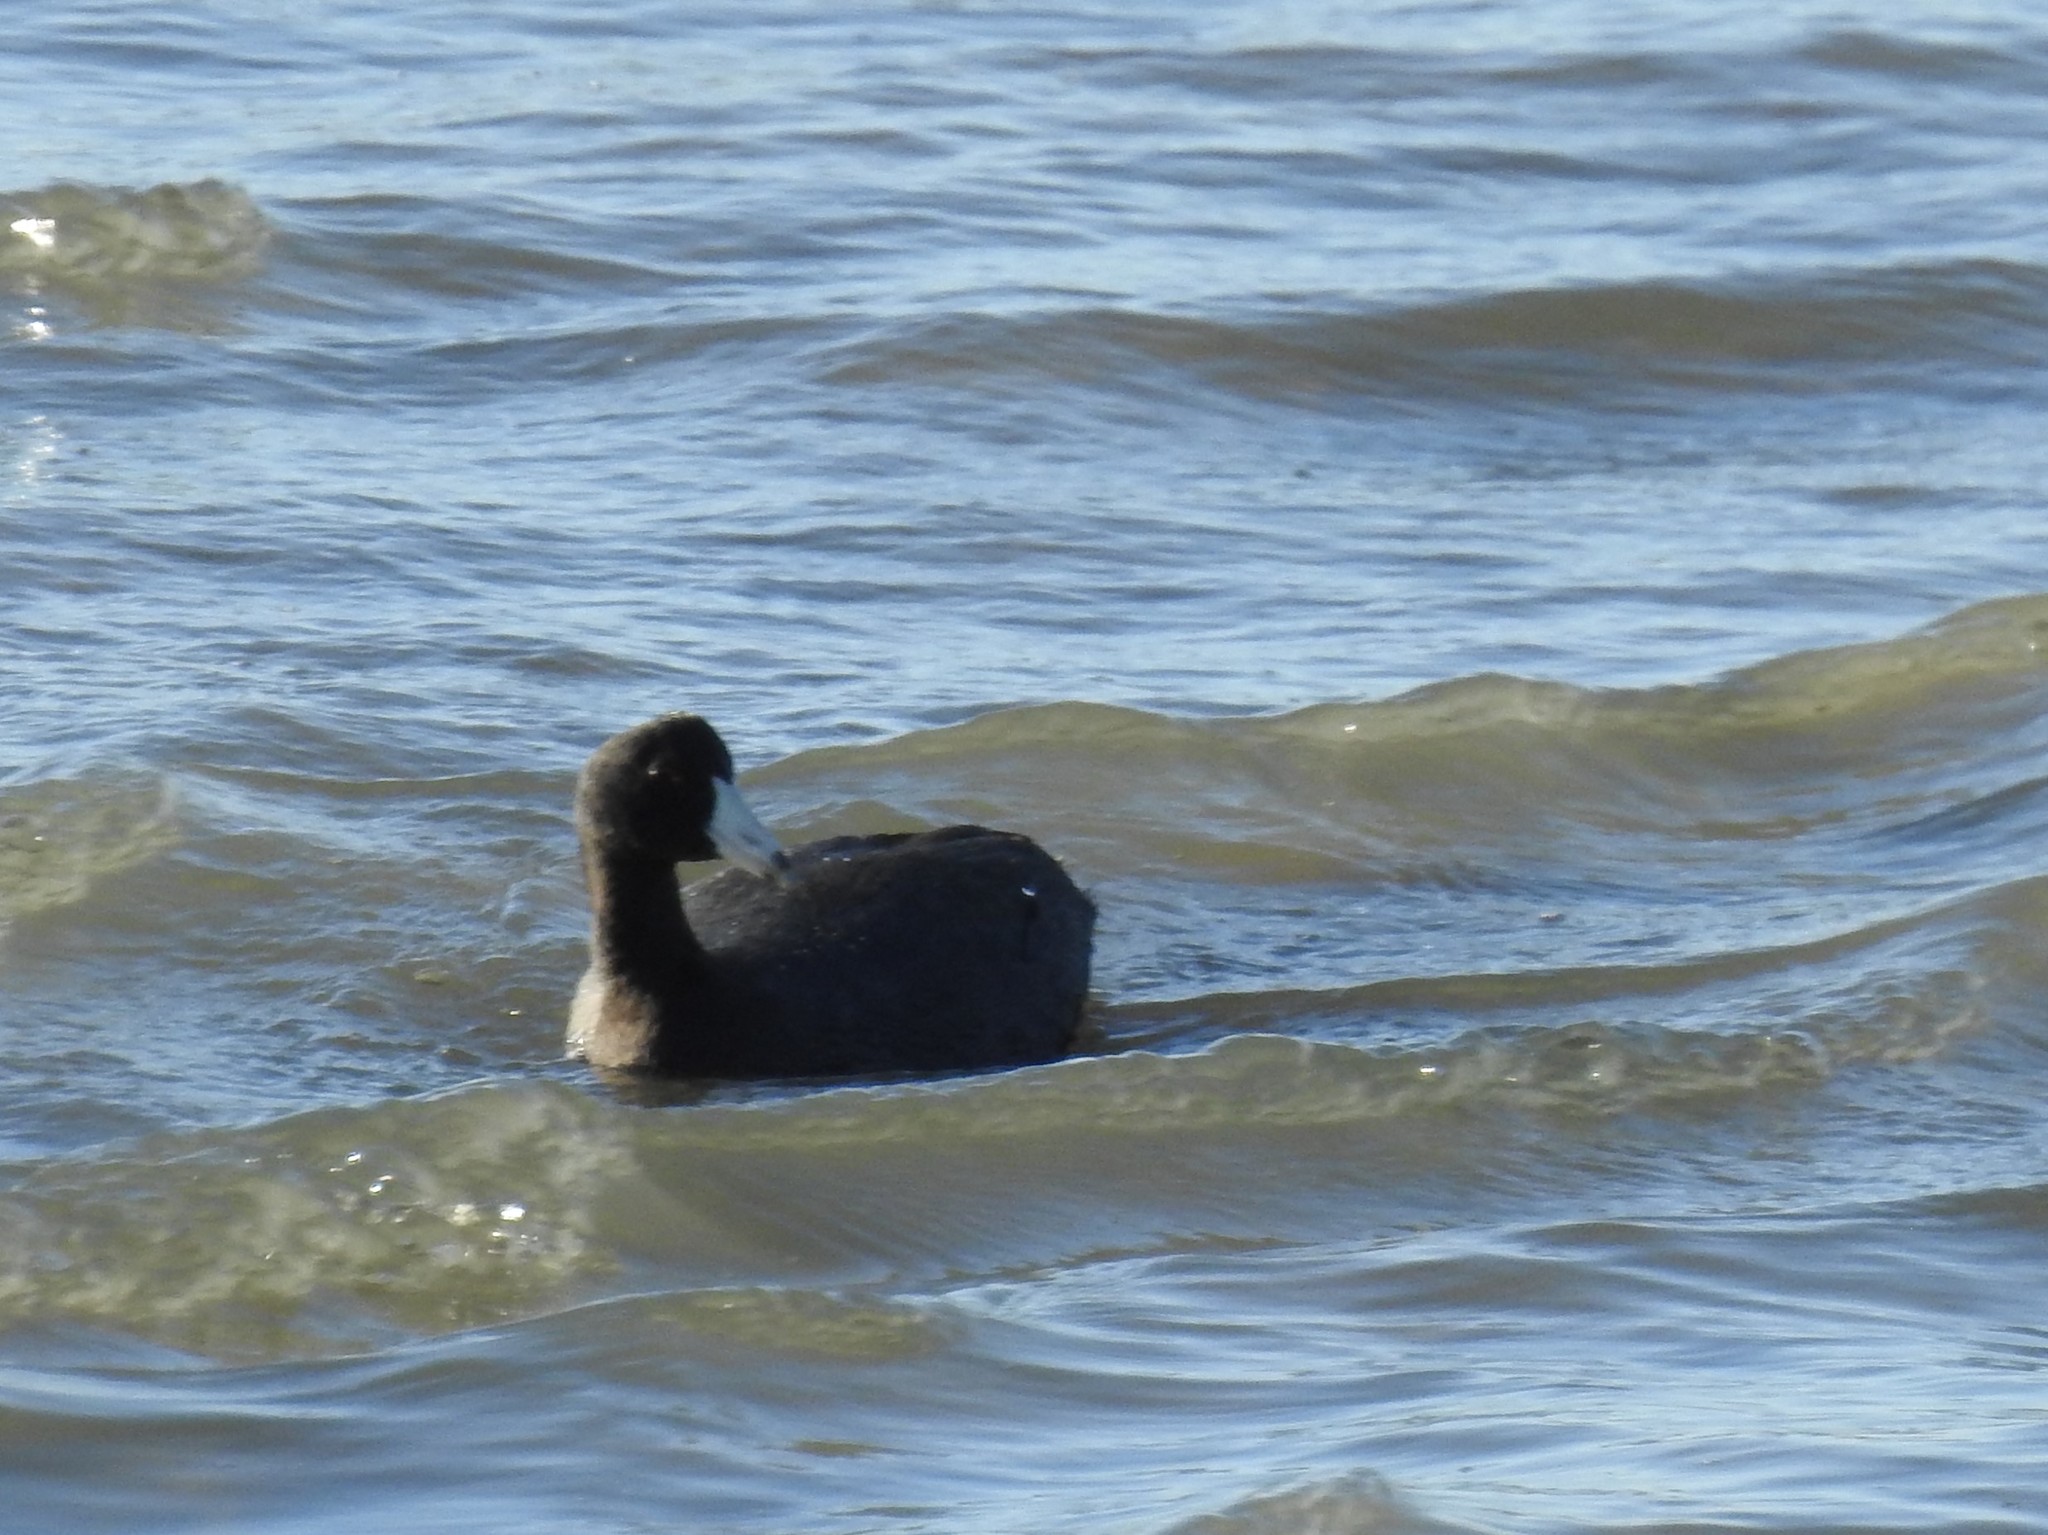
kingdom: Animalia
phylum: Chordata
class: Aves
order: Gruiformes
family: Rallidae
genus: Fulica
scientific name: Fulica americana
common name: American coot
